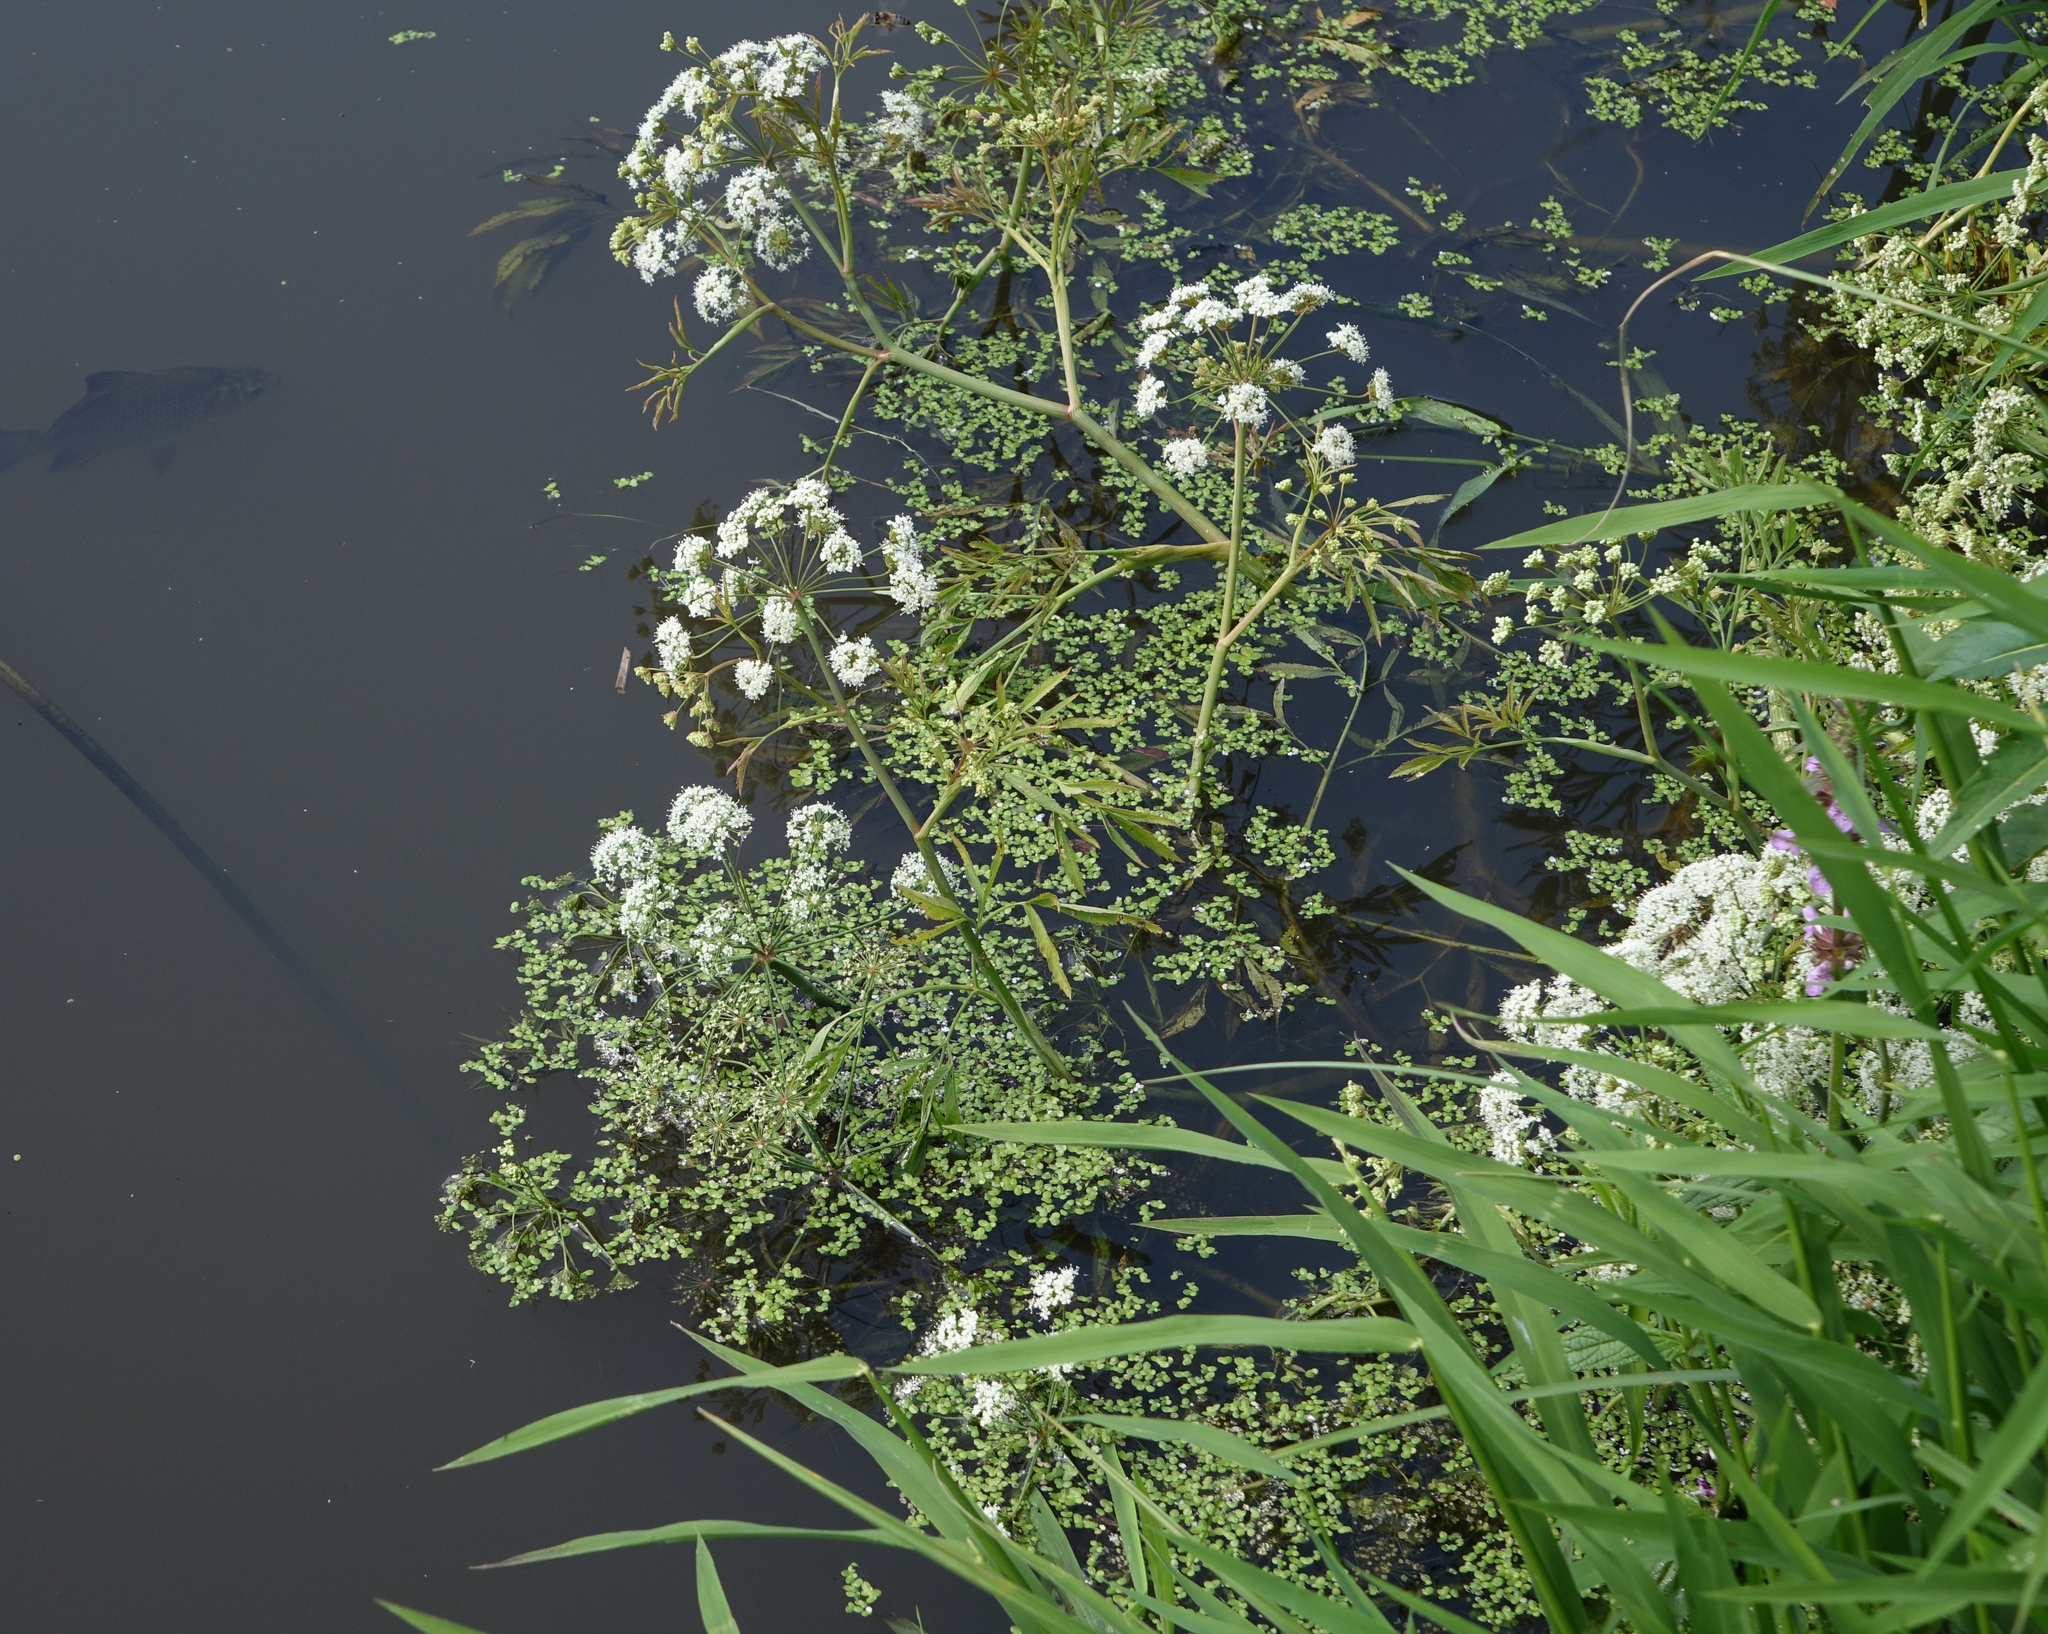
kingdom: Plantae
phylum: Tracheophyta
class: Magnoliopsida
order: Apiales
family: Apiaceae
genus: Cicuta
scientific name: Cicuta virosa
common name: Cowbane
